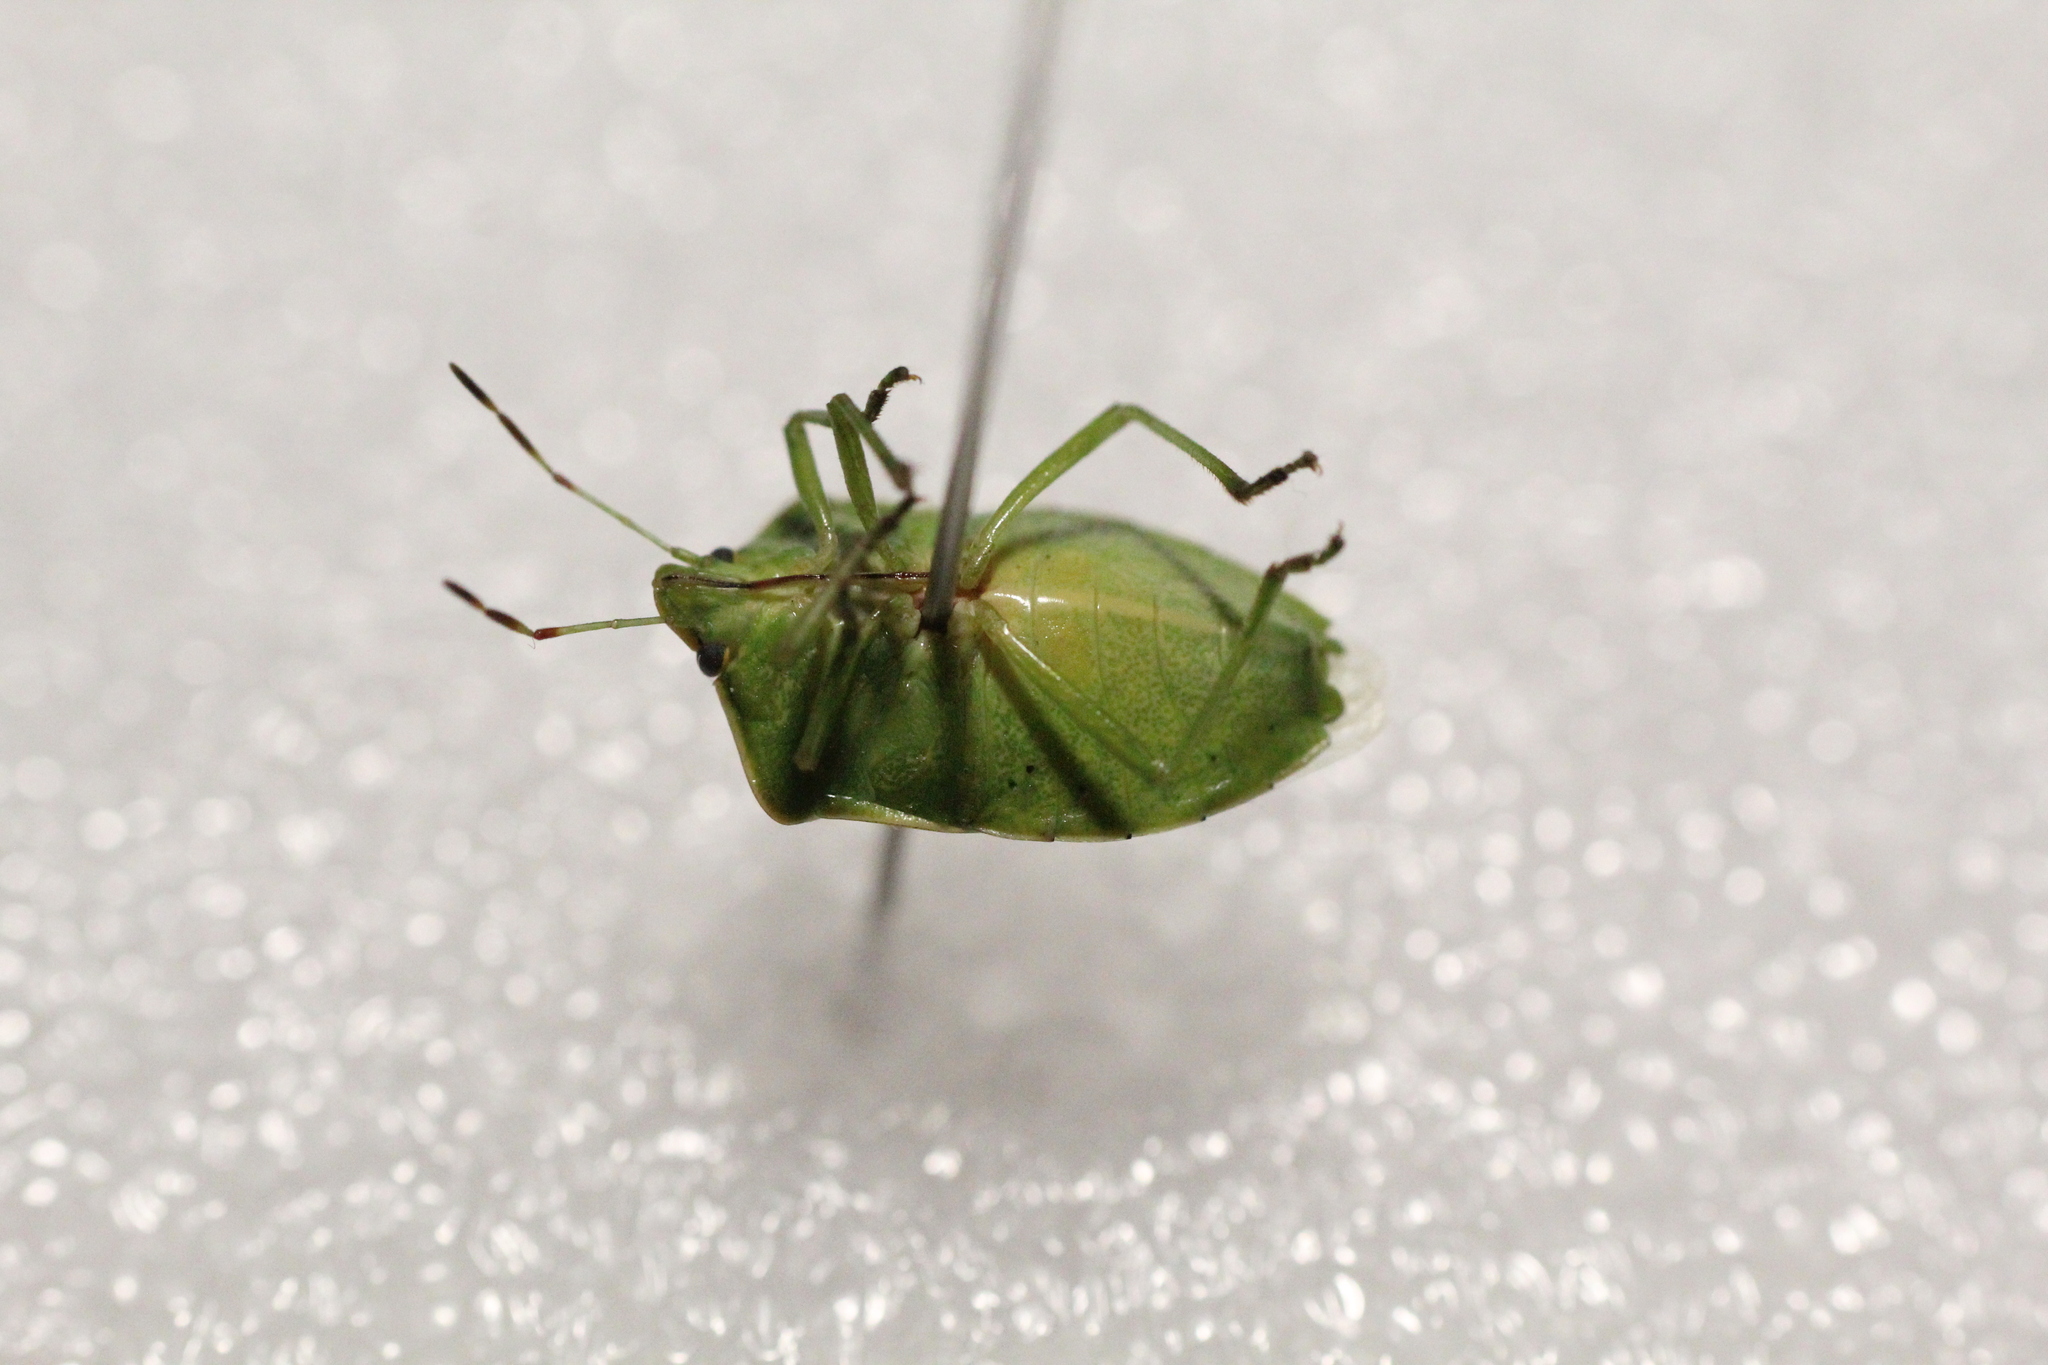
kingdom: Animalia
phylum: Arthropoda
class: Insecta
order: Hemiptera
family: Pentatomidae
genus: Nezara
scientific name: Nezara viridula
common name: Southern green stink bug
